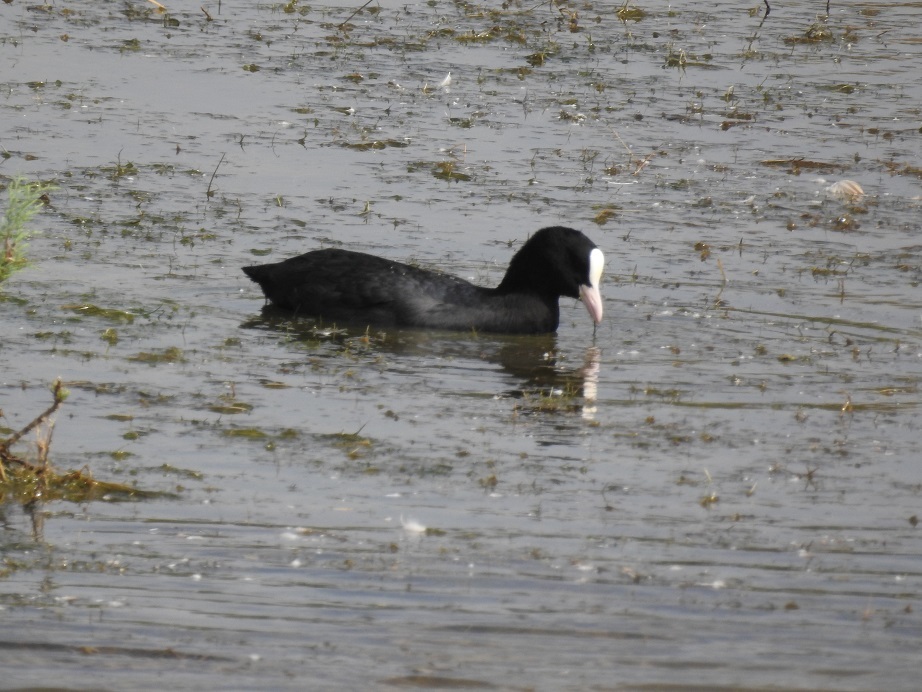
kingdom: Animalia
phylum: Chordata
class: Aves
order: Gruiformes
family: Rallidae
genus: Fulica
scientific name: Fulica atra
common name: Eurasian coot
